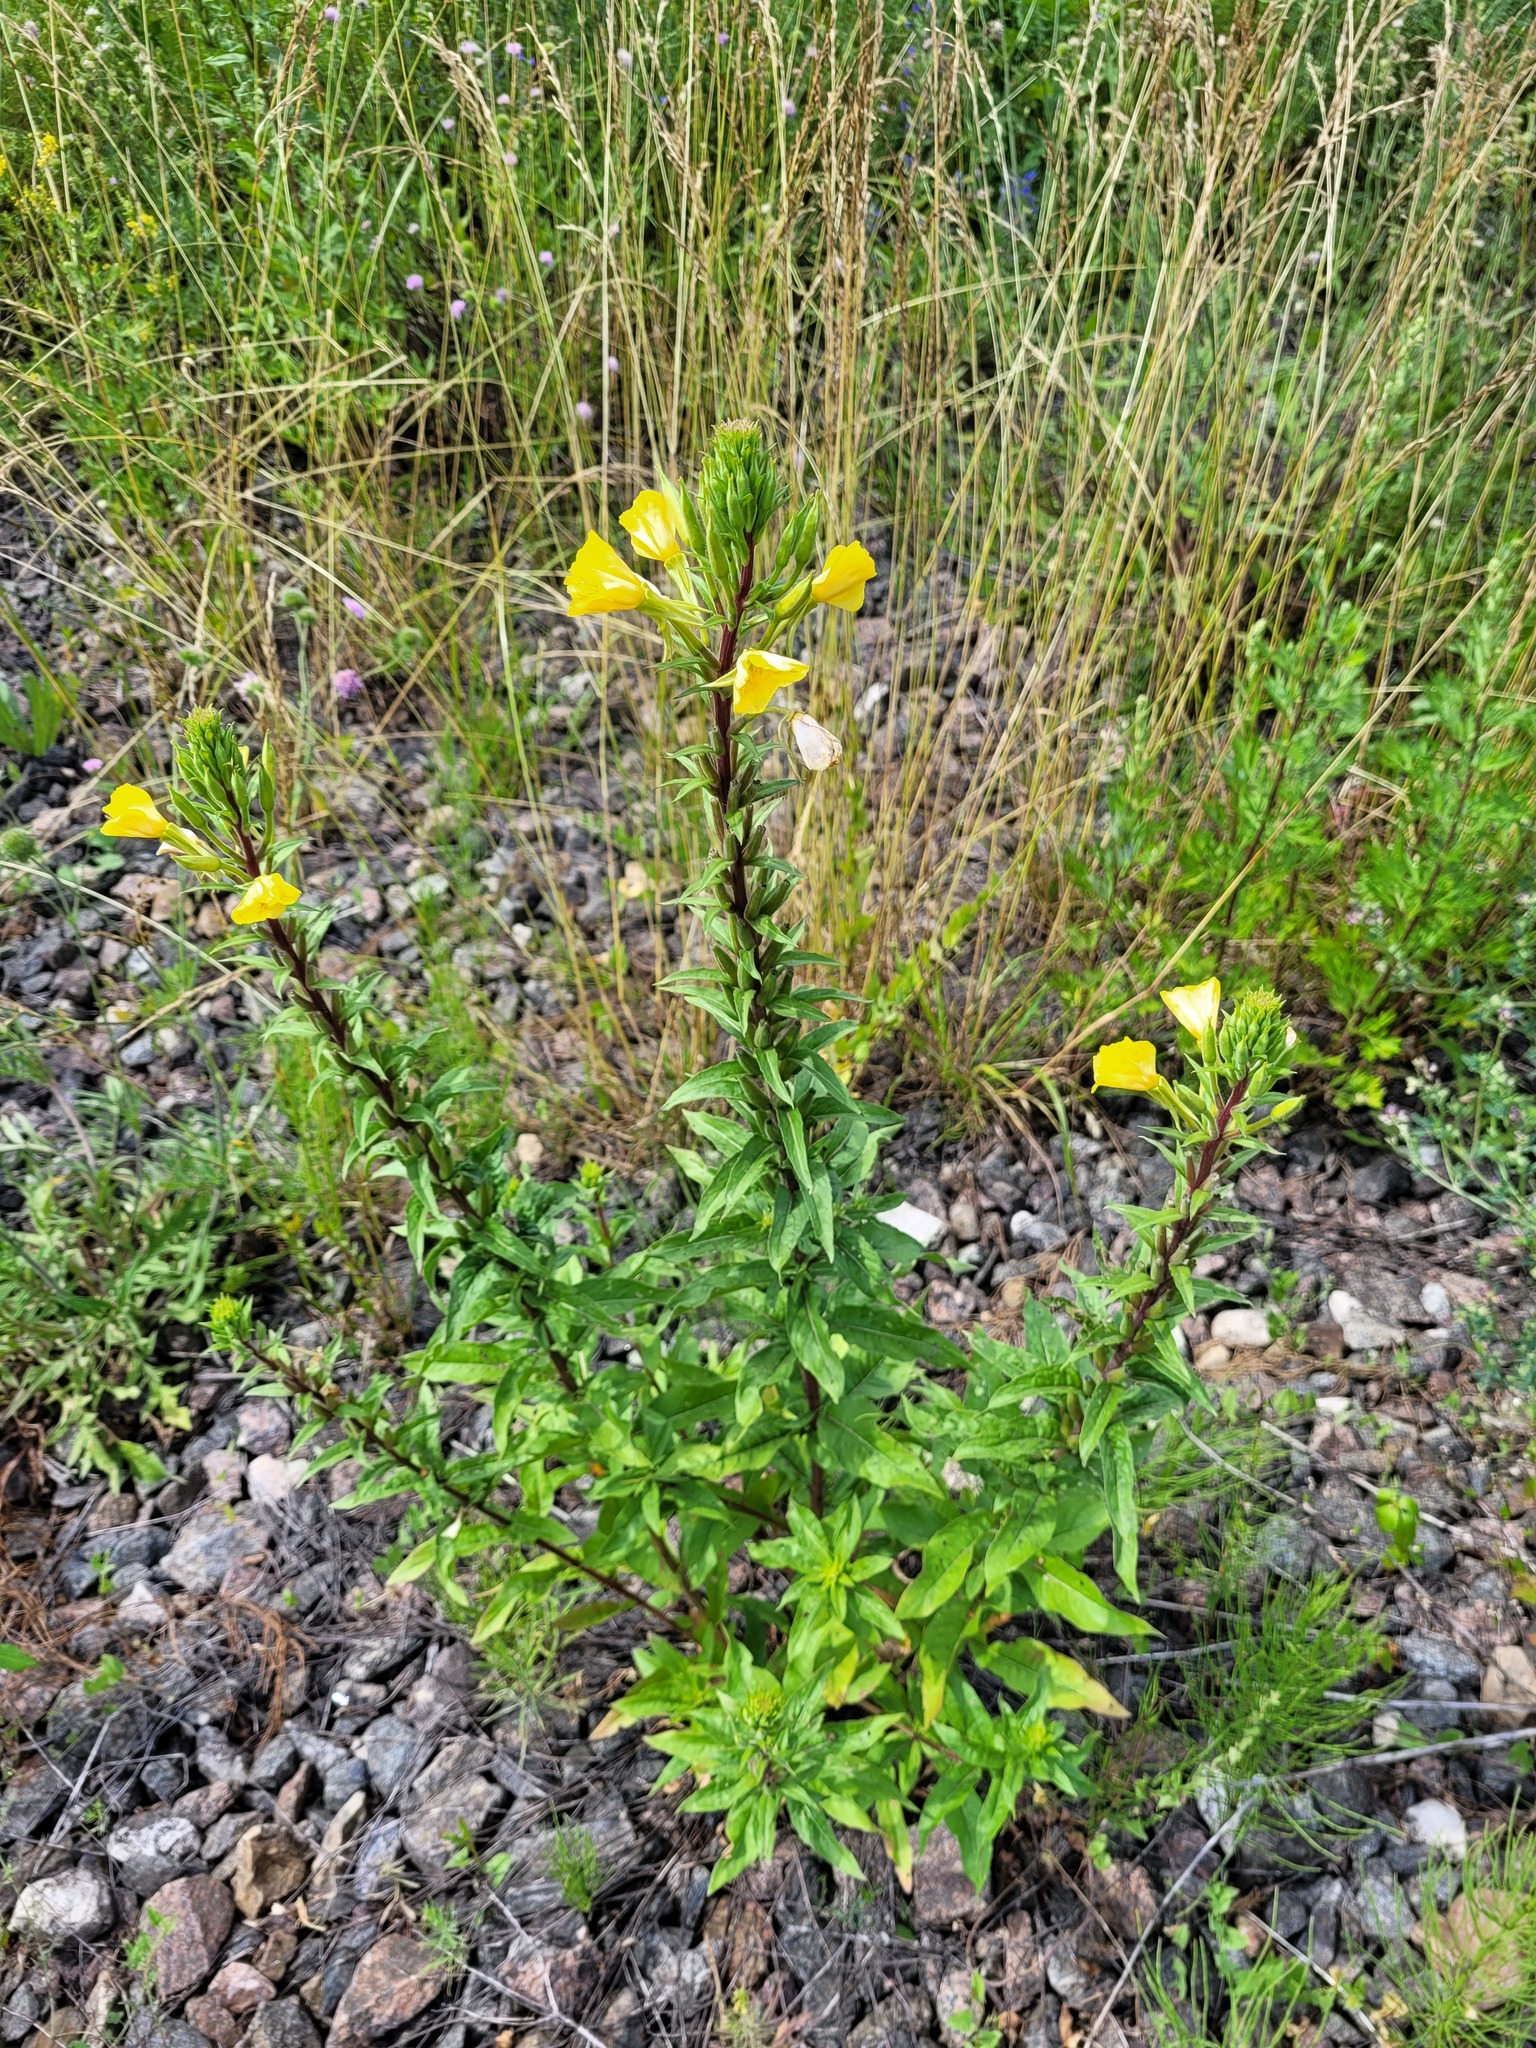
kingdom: Plantae
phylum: Tracheophyta
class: Magnoliopsida
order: Myrtales
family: Onagraceae
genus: Oenothera
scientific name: Oenothera rubricaulis
